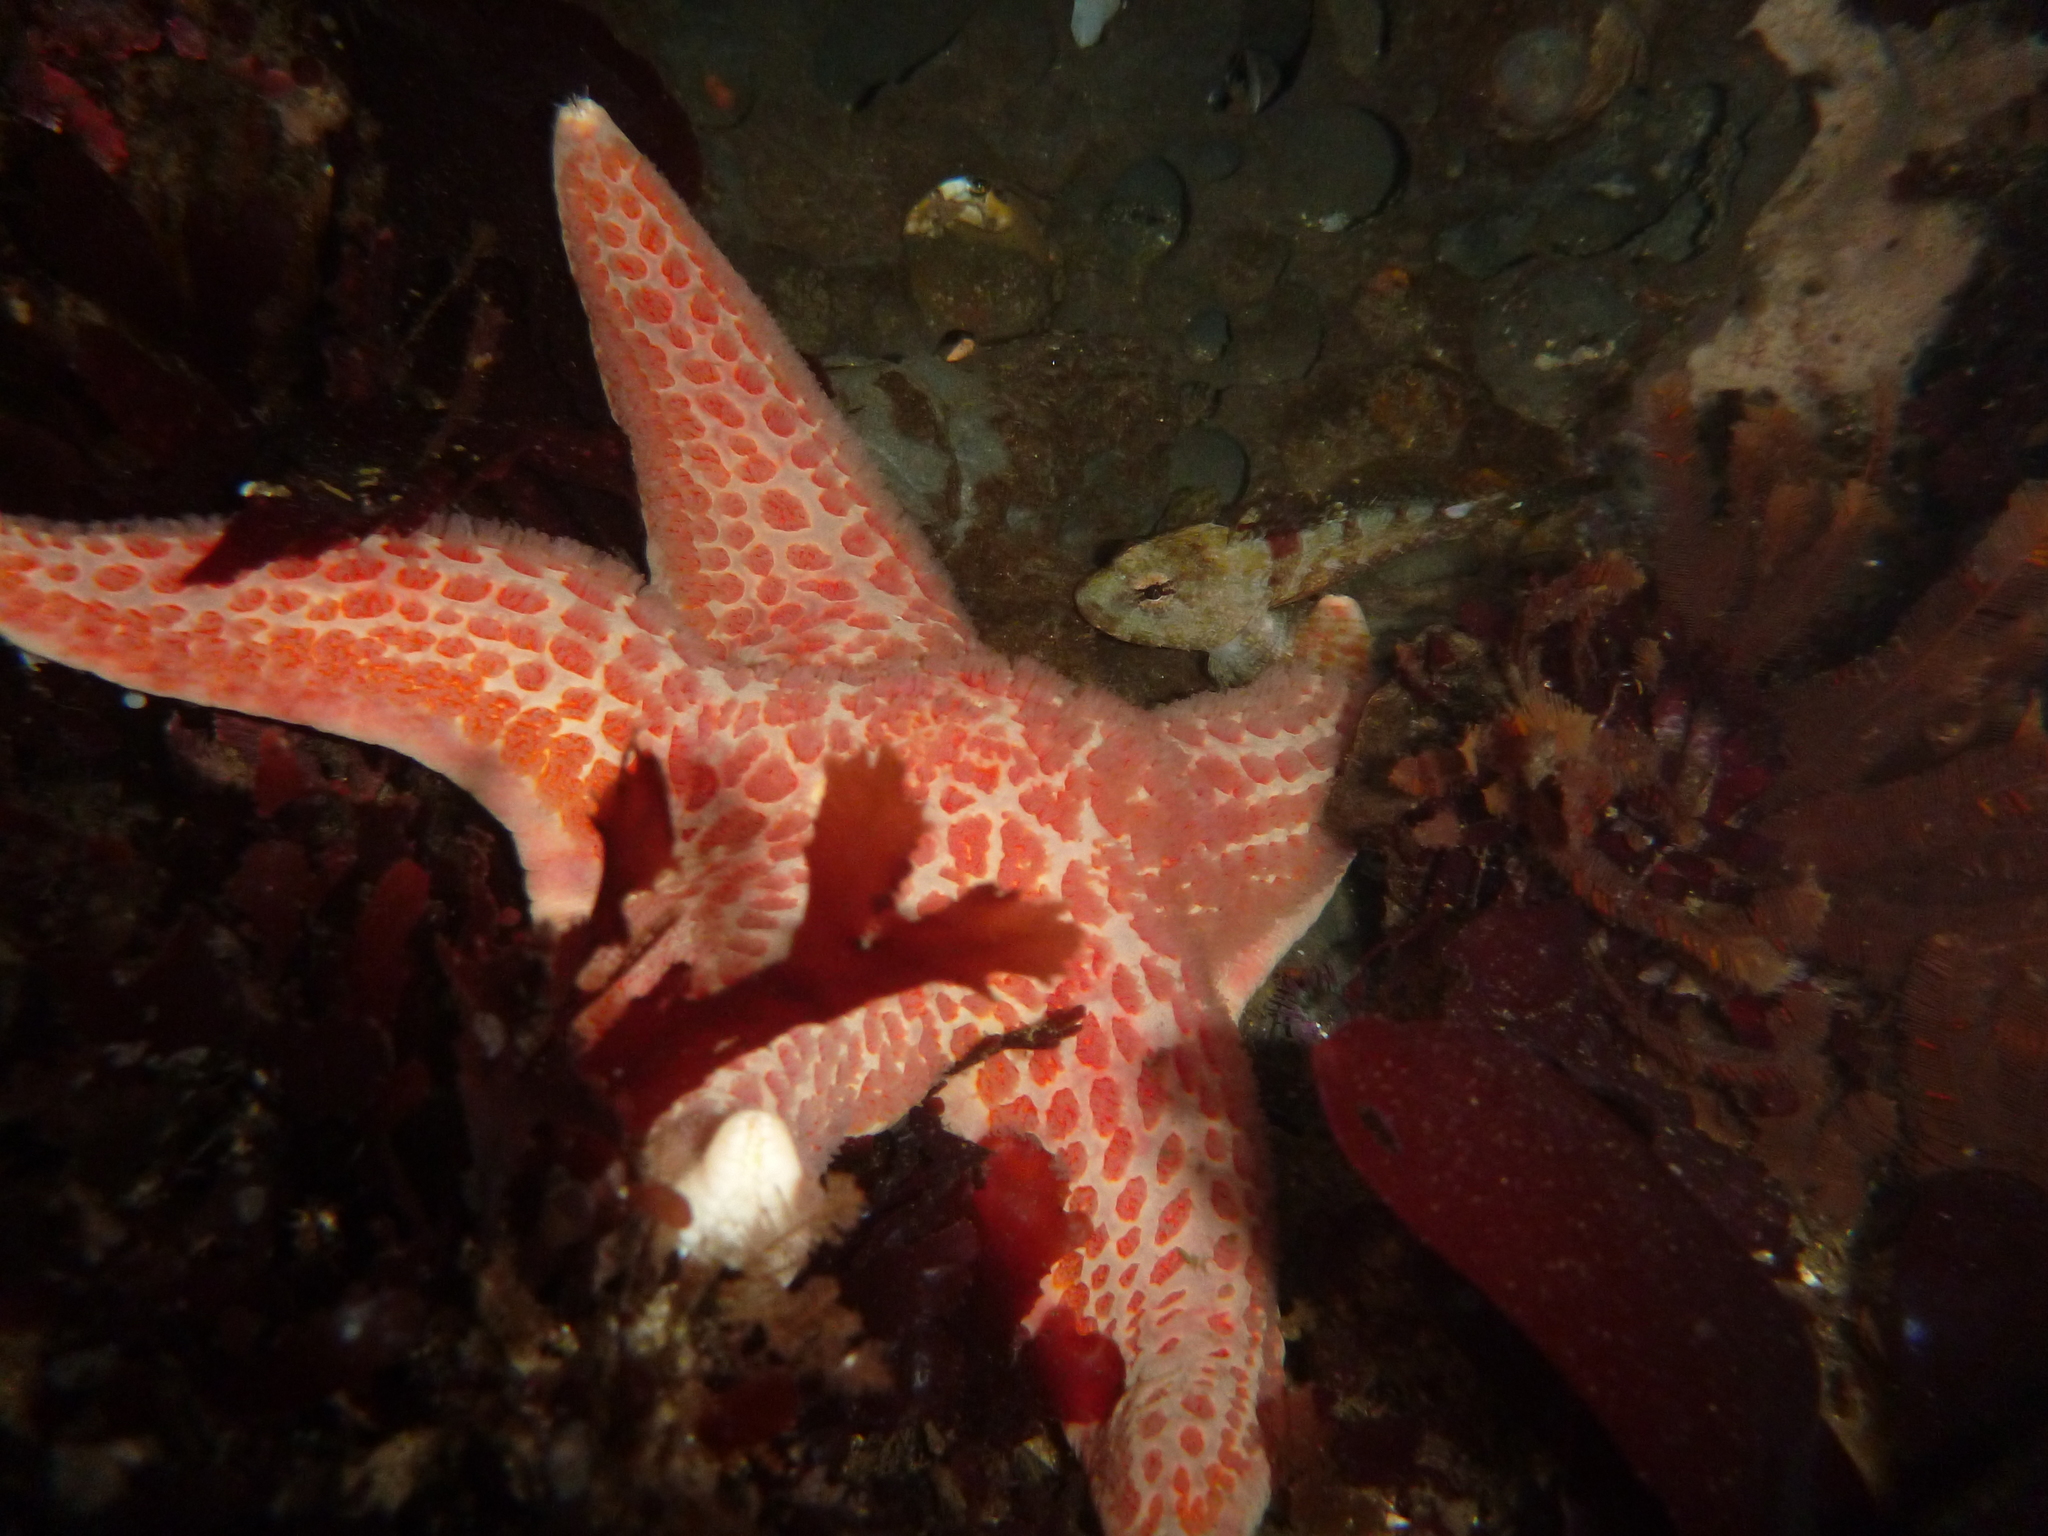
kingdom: Animalia
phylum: Echinodermata
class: Asteroidea
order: Valvatida
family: Asteropseidae
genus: Dermasterias
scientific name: Dermasterias imbricata
